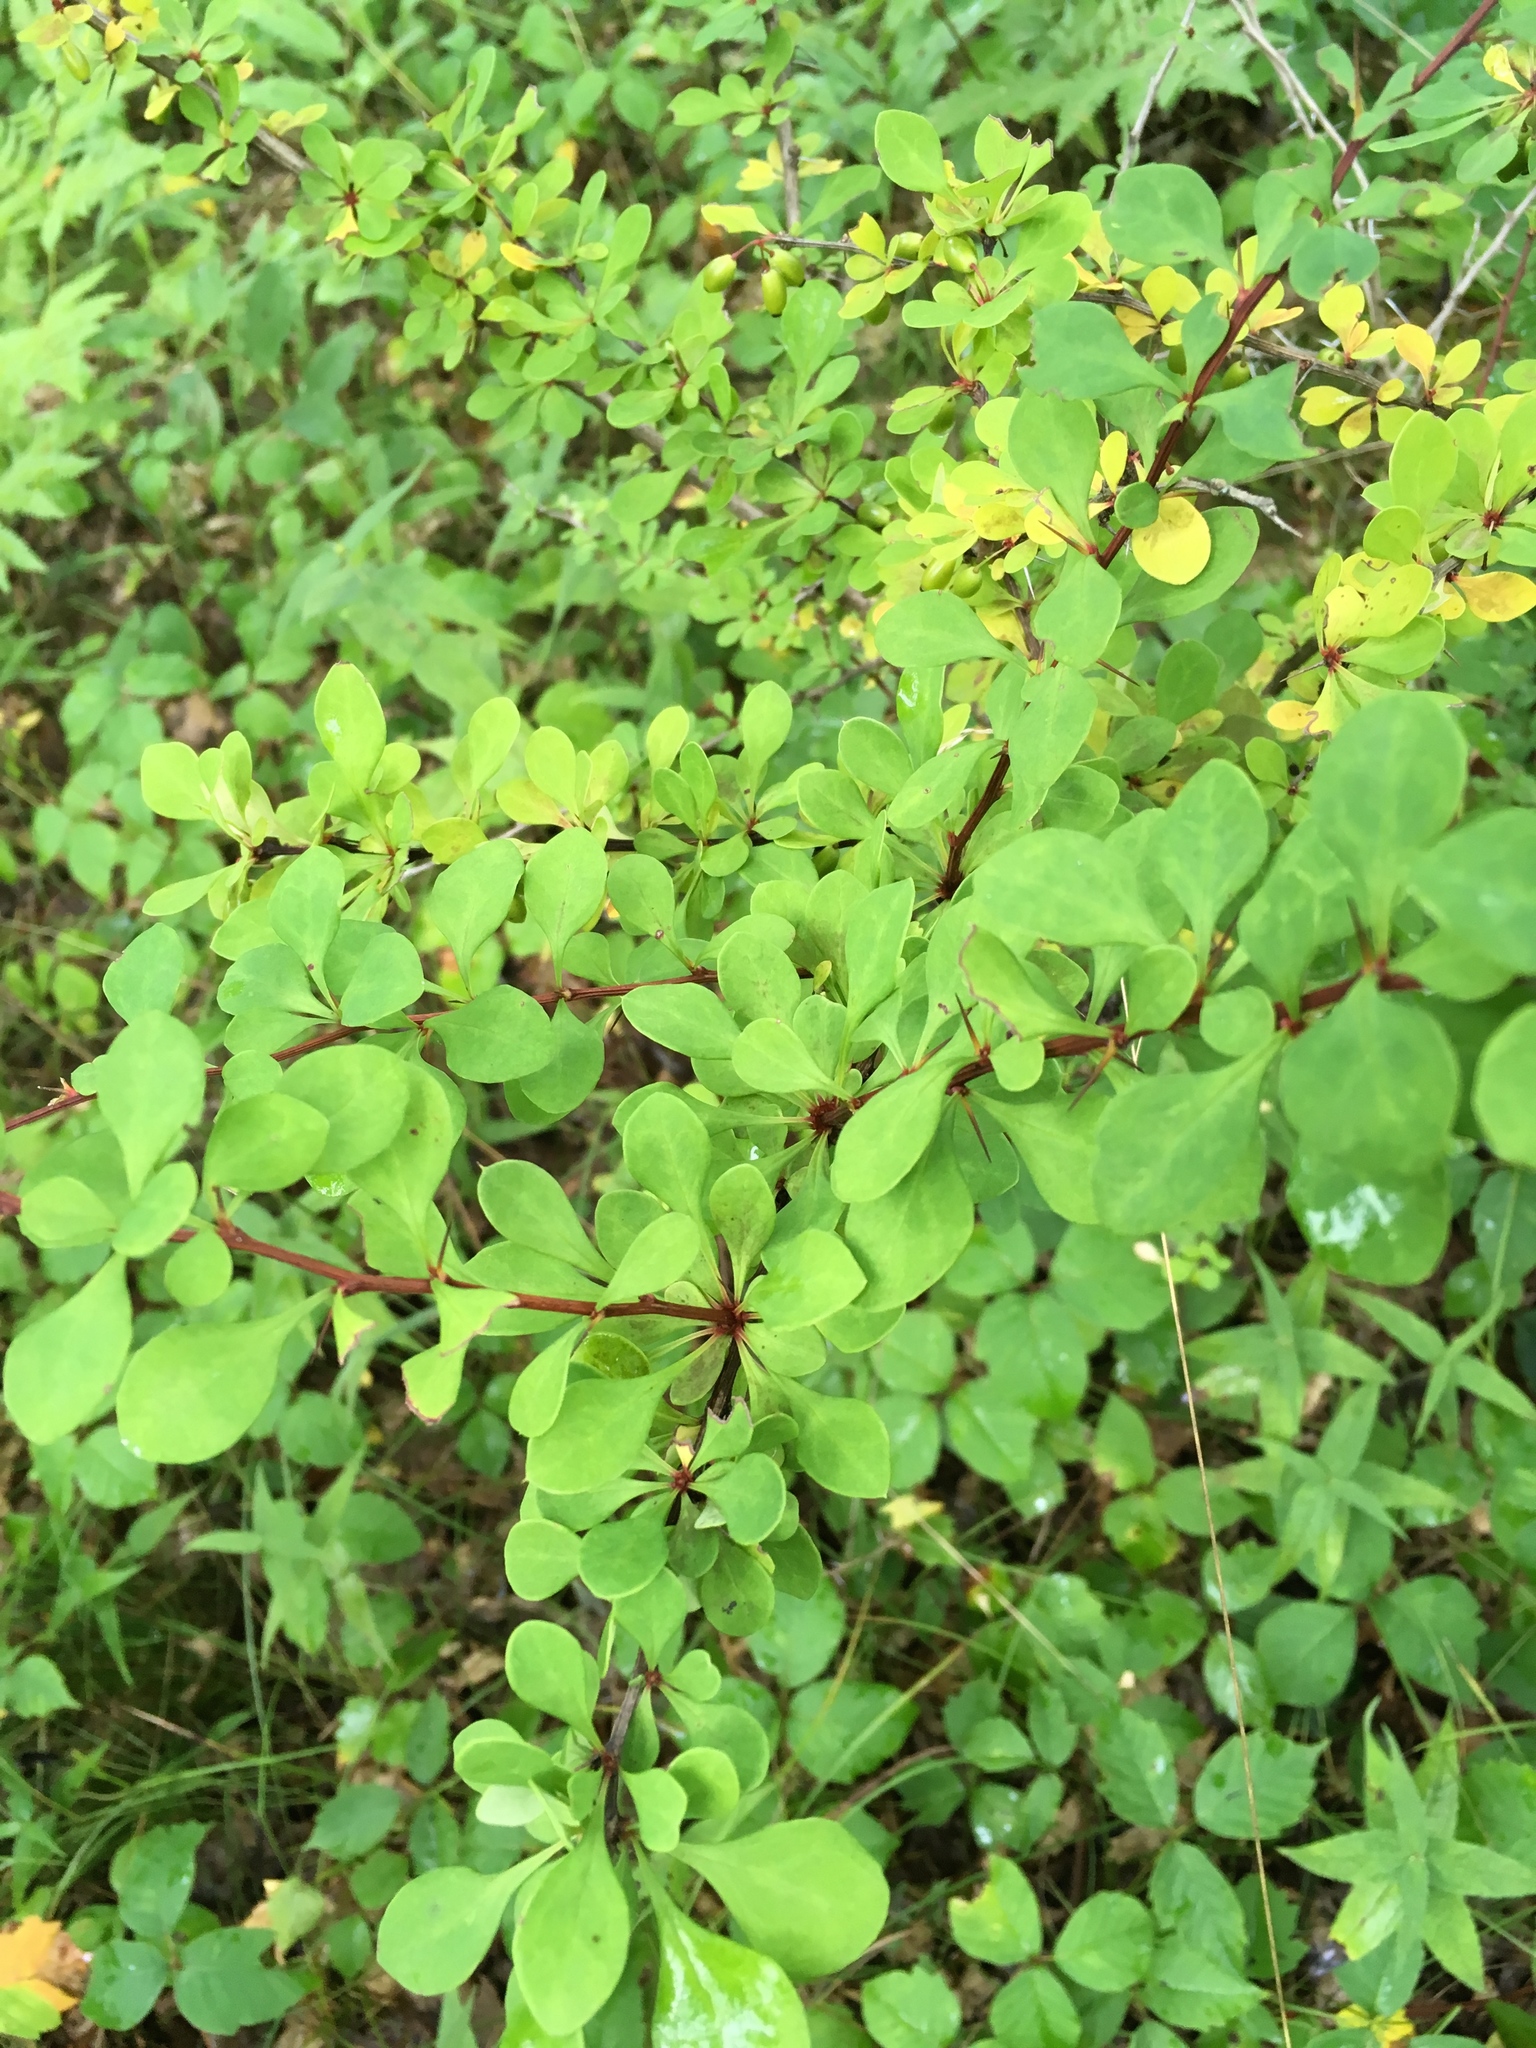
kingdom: Plantae
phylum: Tracheophyta
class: Magnoliopsida
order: Ranunculales
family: Berberidaceae
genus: Berberis
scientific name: Berberis thunbergii
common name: Japanese barberry
